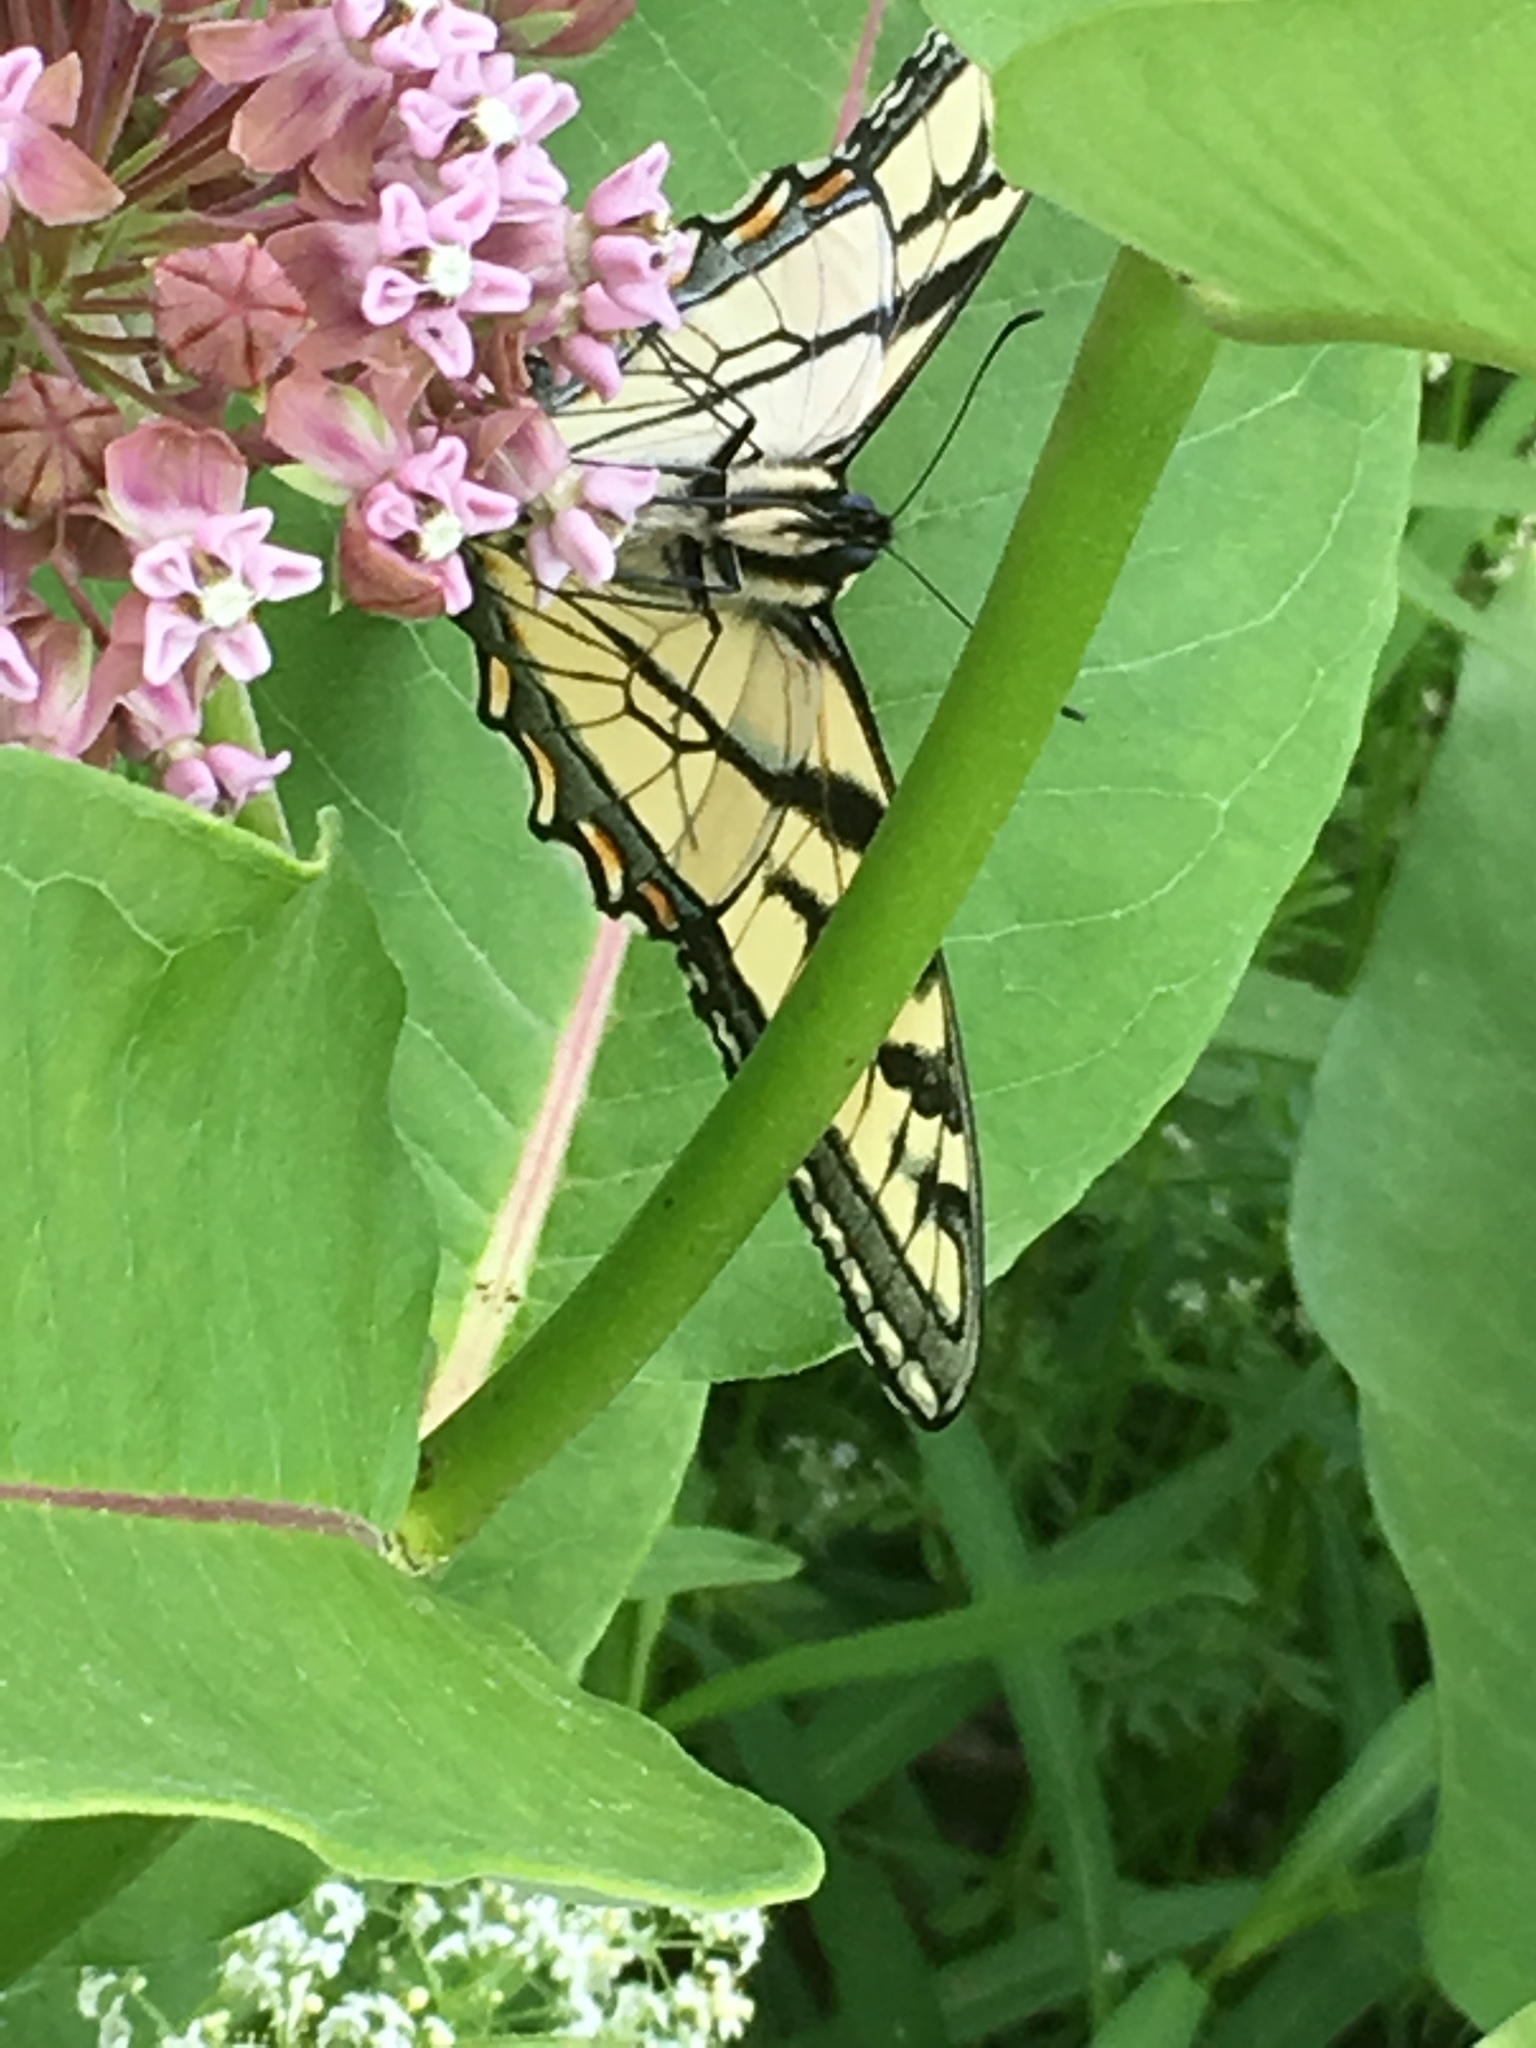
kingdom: Animalia
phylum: Arthropoda
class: Insecta
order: Lepidoptera
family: Papilionidae
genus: Papilio
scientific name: Papilio canadensis
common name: Canadian tiger swallowtail
